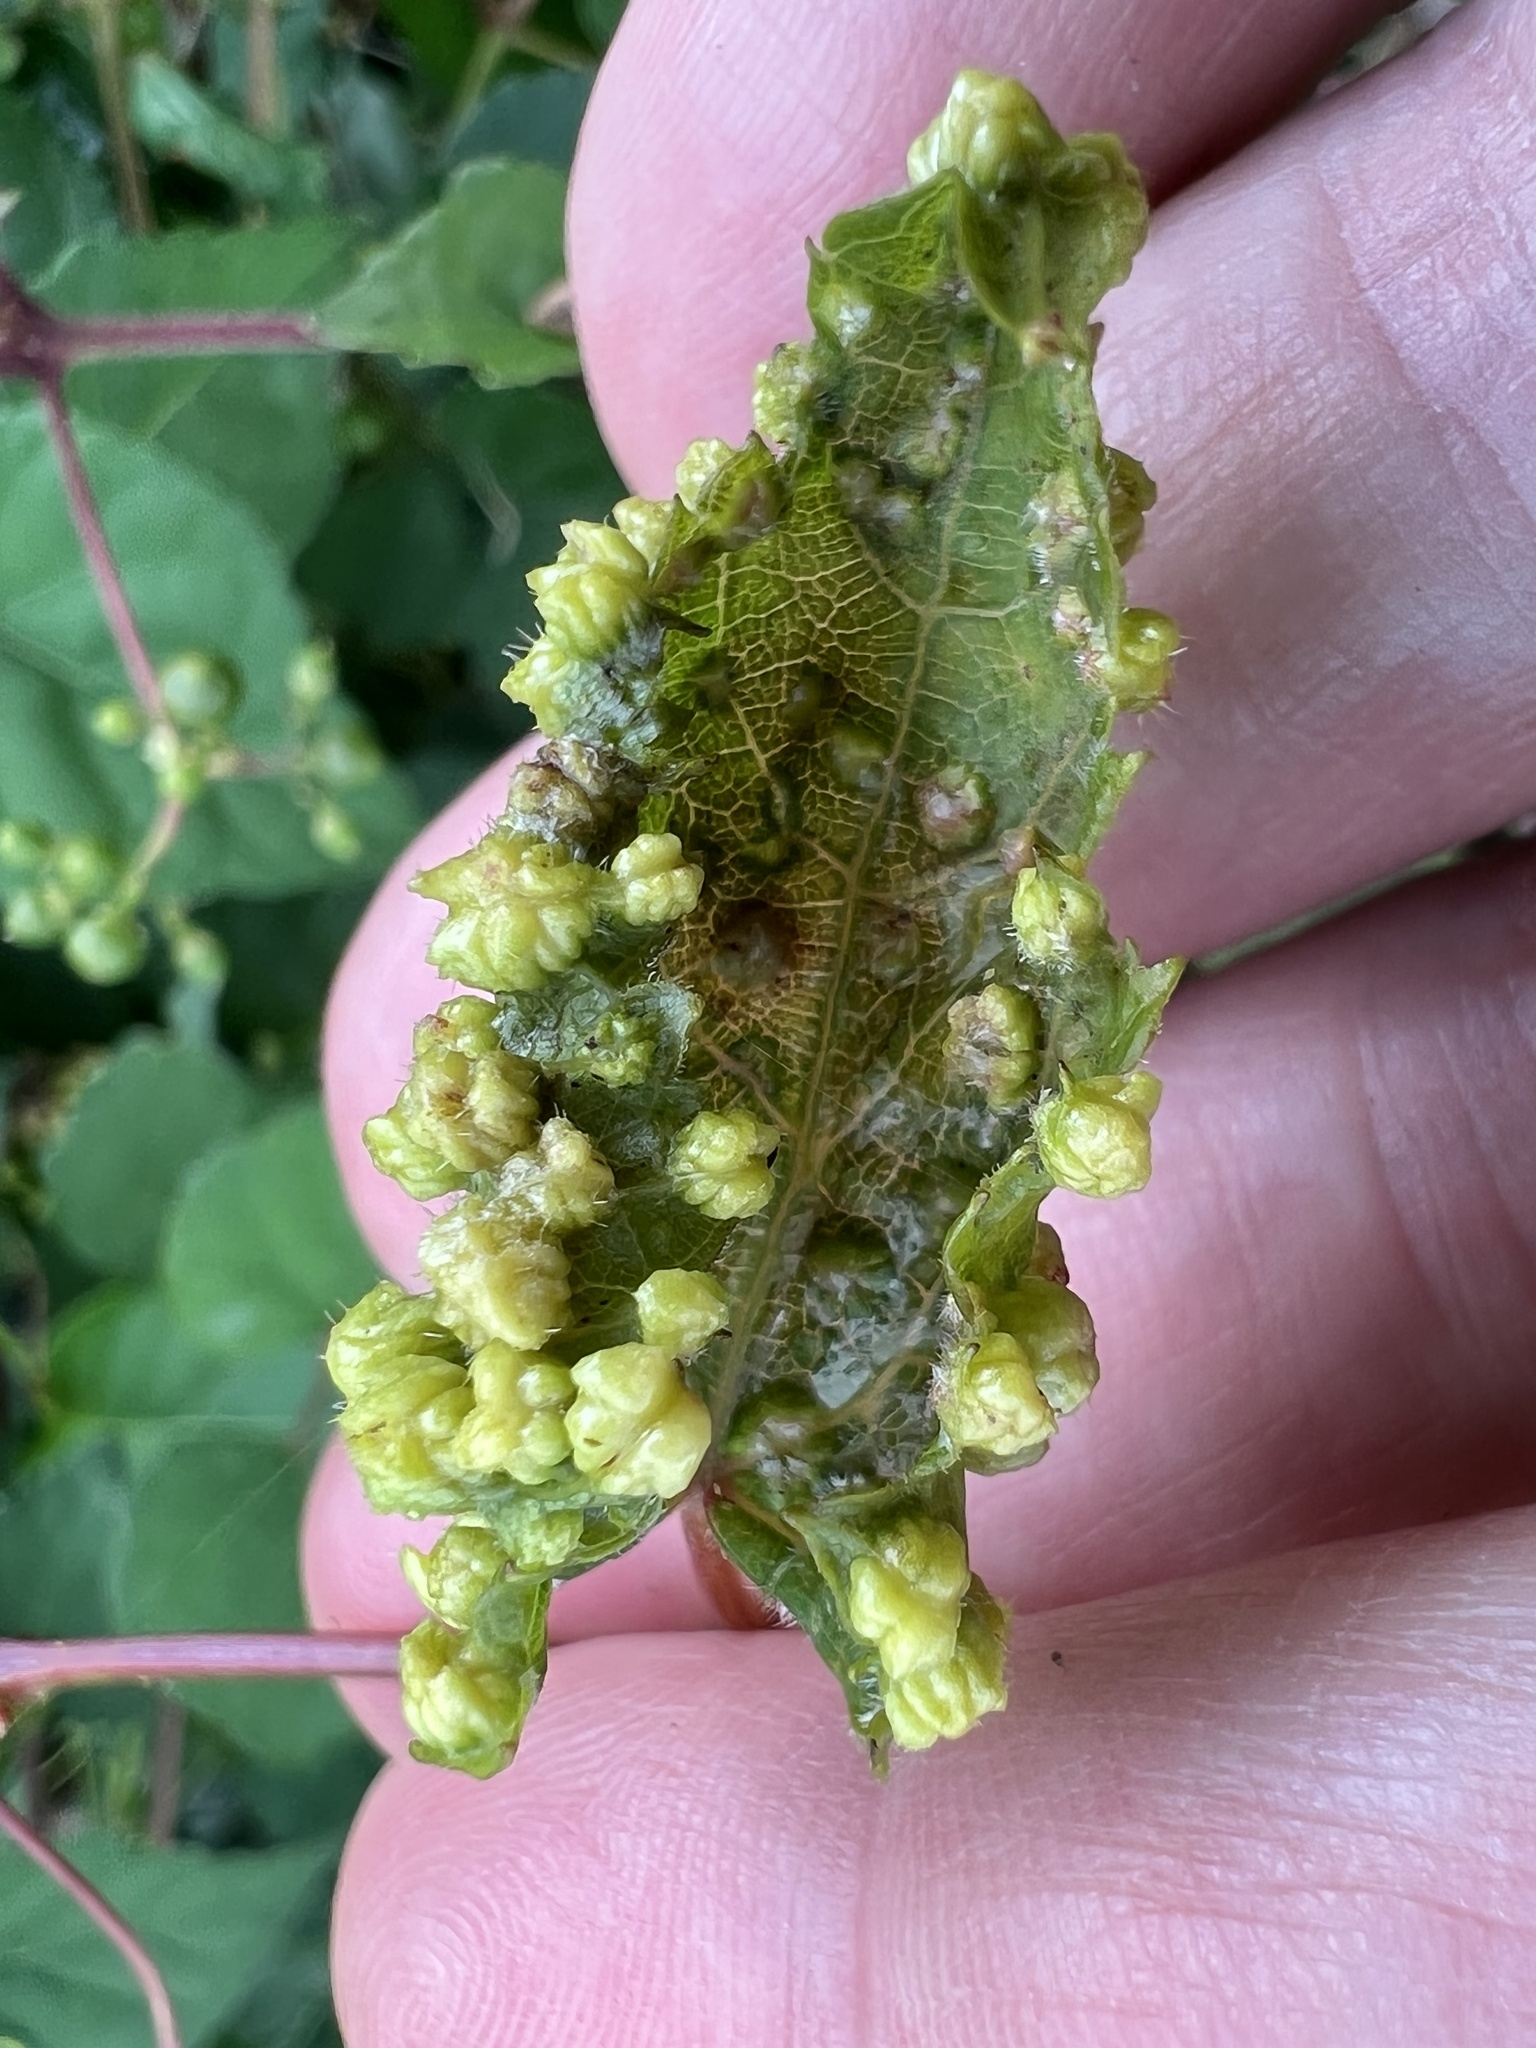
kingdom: Animalia
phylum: Arthropoda
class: Insecta
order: Hemiptera
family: Phylloxeridae
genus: Daktulosphaira
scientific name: Daktulosphaira vitifoliae
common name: Grape phylloxera
